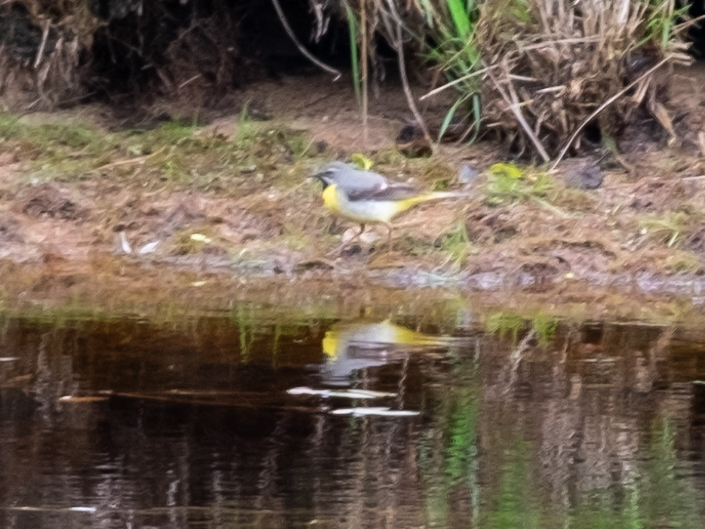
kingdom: Animalia
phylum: Chordata
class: Aves
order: Passeriformes
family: Motacillidae
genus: Motacilla
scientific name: Motacilla cinerea
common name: Grey wagtail
